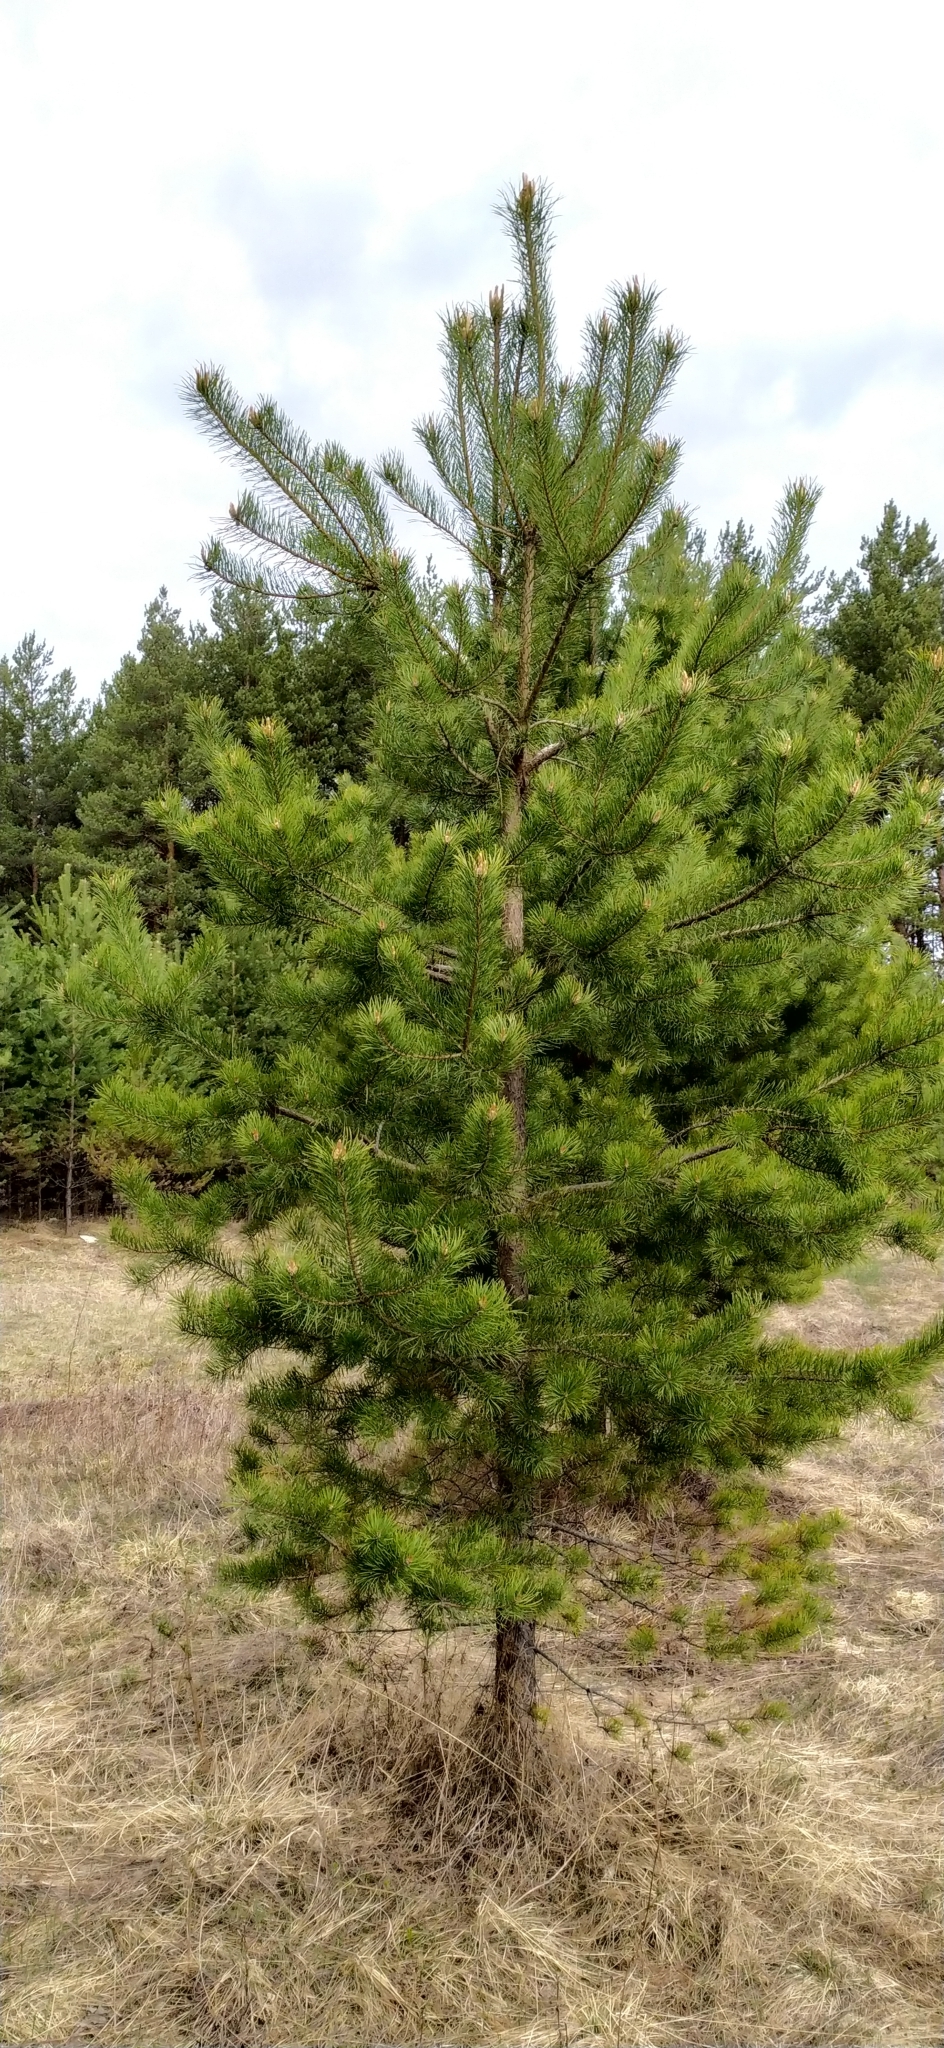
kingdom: Plantae
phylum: Tracheophyta
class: Pinopsida
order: Pinales
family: Pinaceae
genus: Pinus
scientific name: Pinus sylvestris
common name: Scots pine
